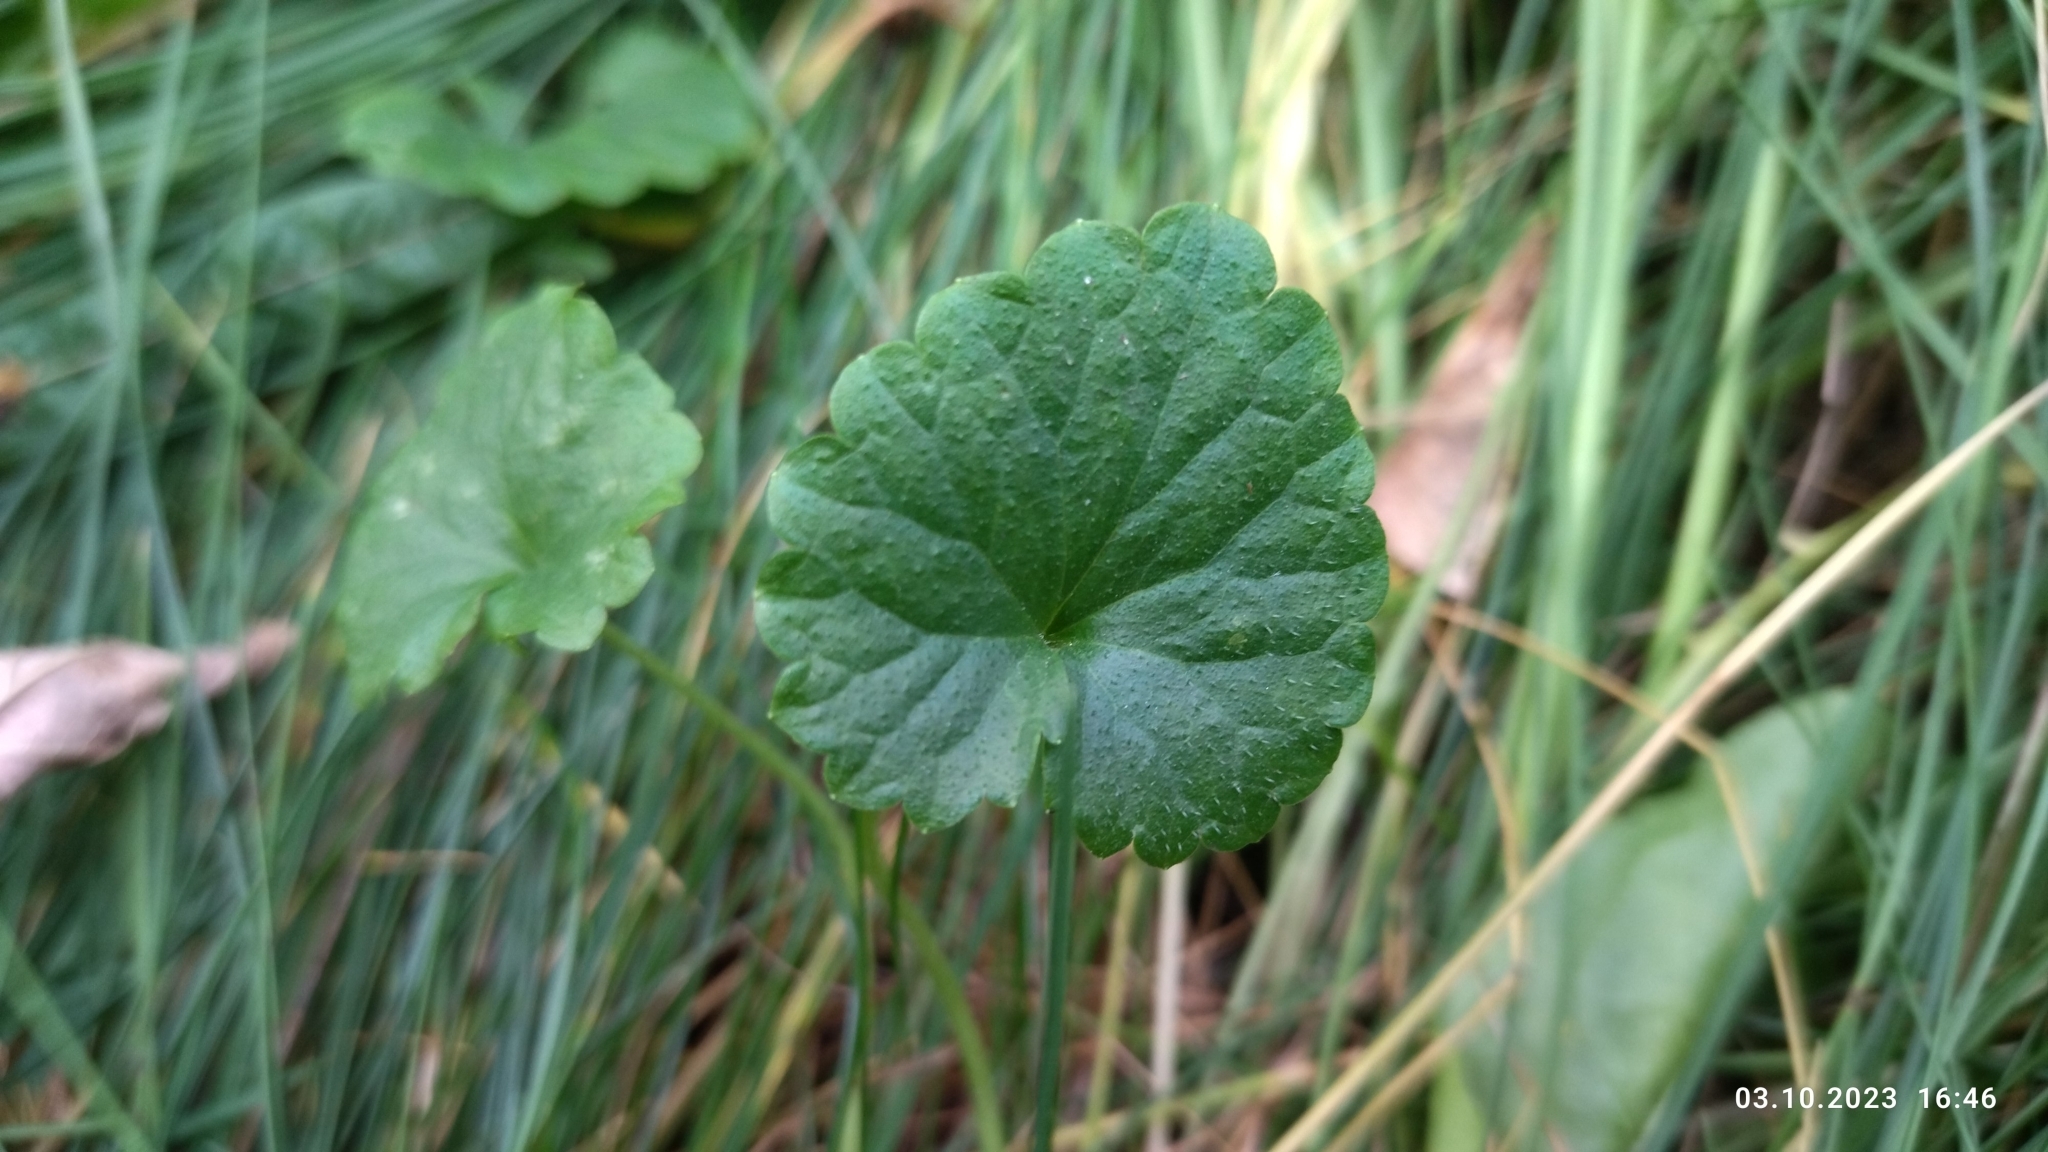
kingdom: Plantae
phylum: Tracheophyta
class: Magnoliopsida
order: Lamiales
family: Lamiaceae
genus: Glechoma
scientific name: Glechoma hederacea
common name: Ground ivy
